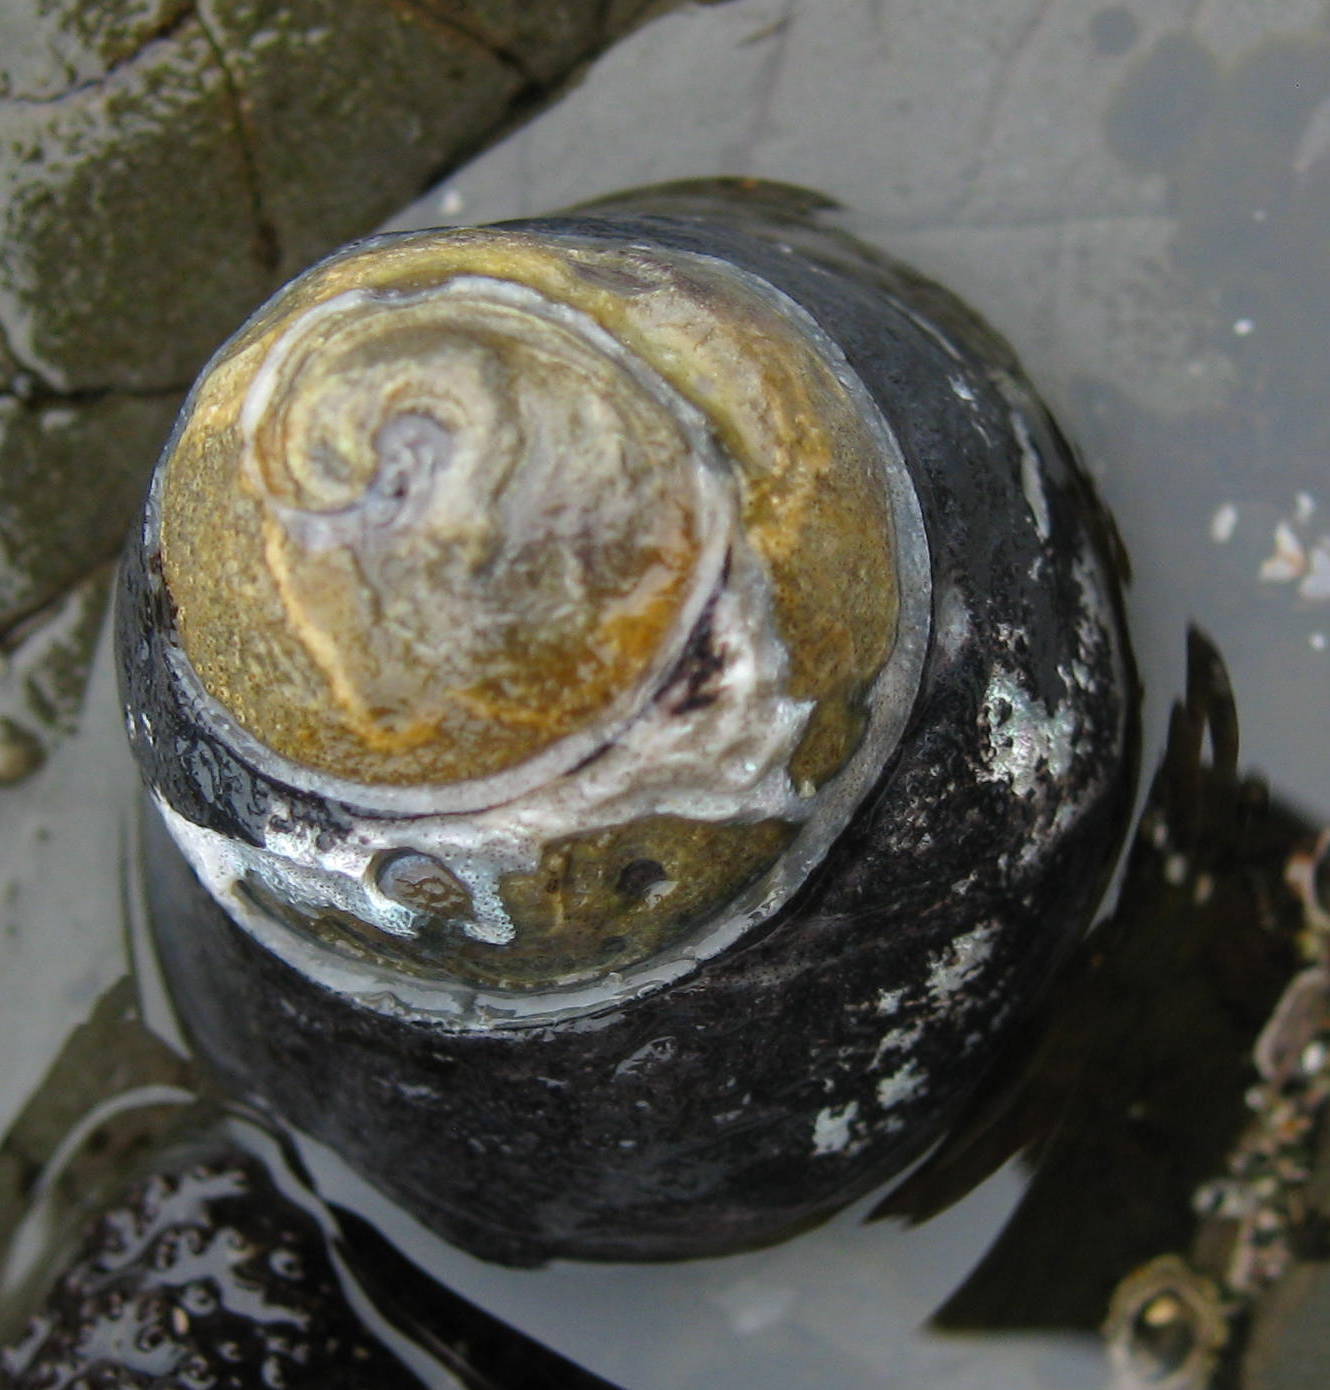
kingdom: Animalia
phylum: Mollusca
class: Gastropoda
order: Trochida
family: Tegulidae
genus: Tegula
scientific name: Tegula funebralis
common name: Black tegula
